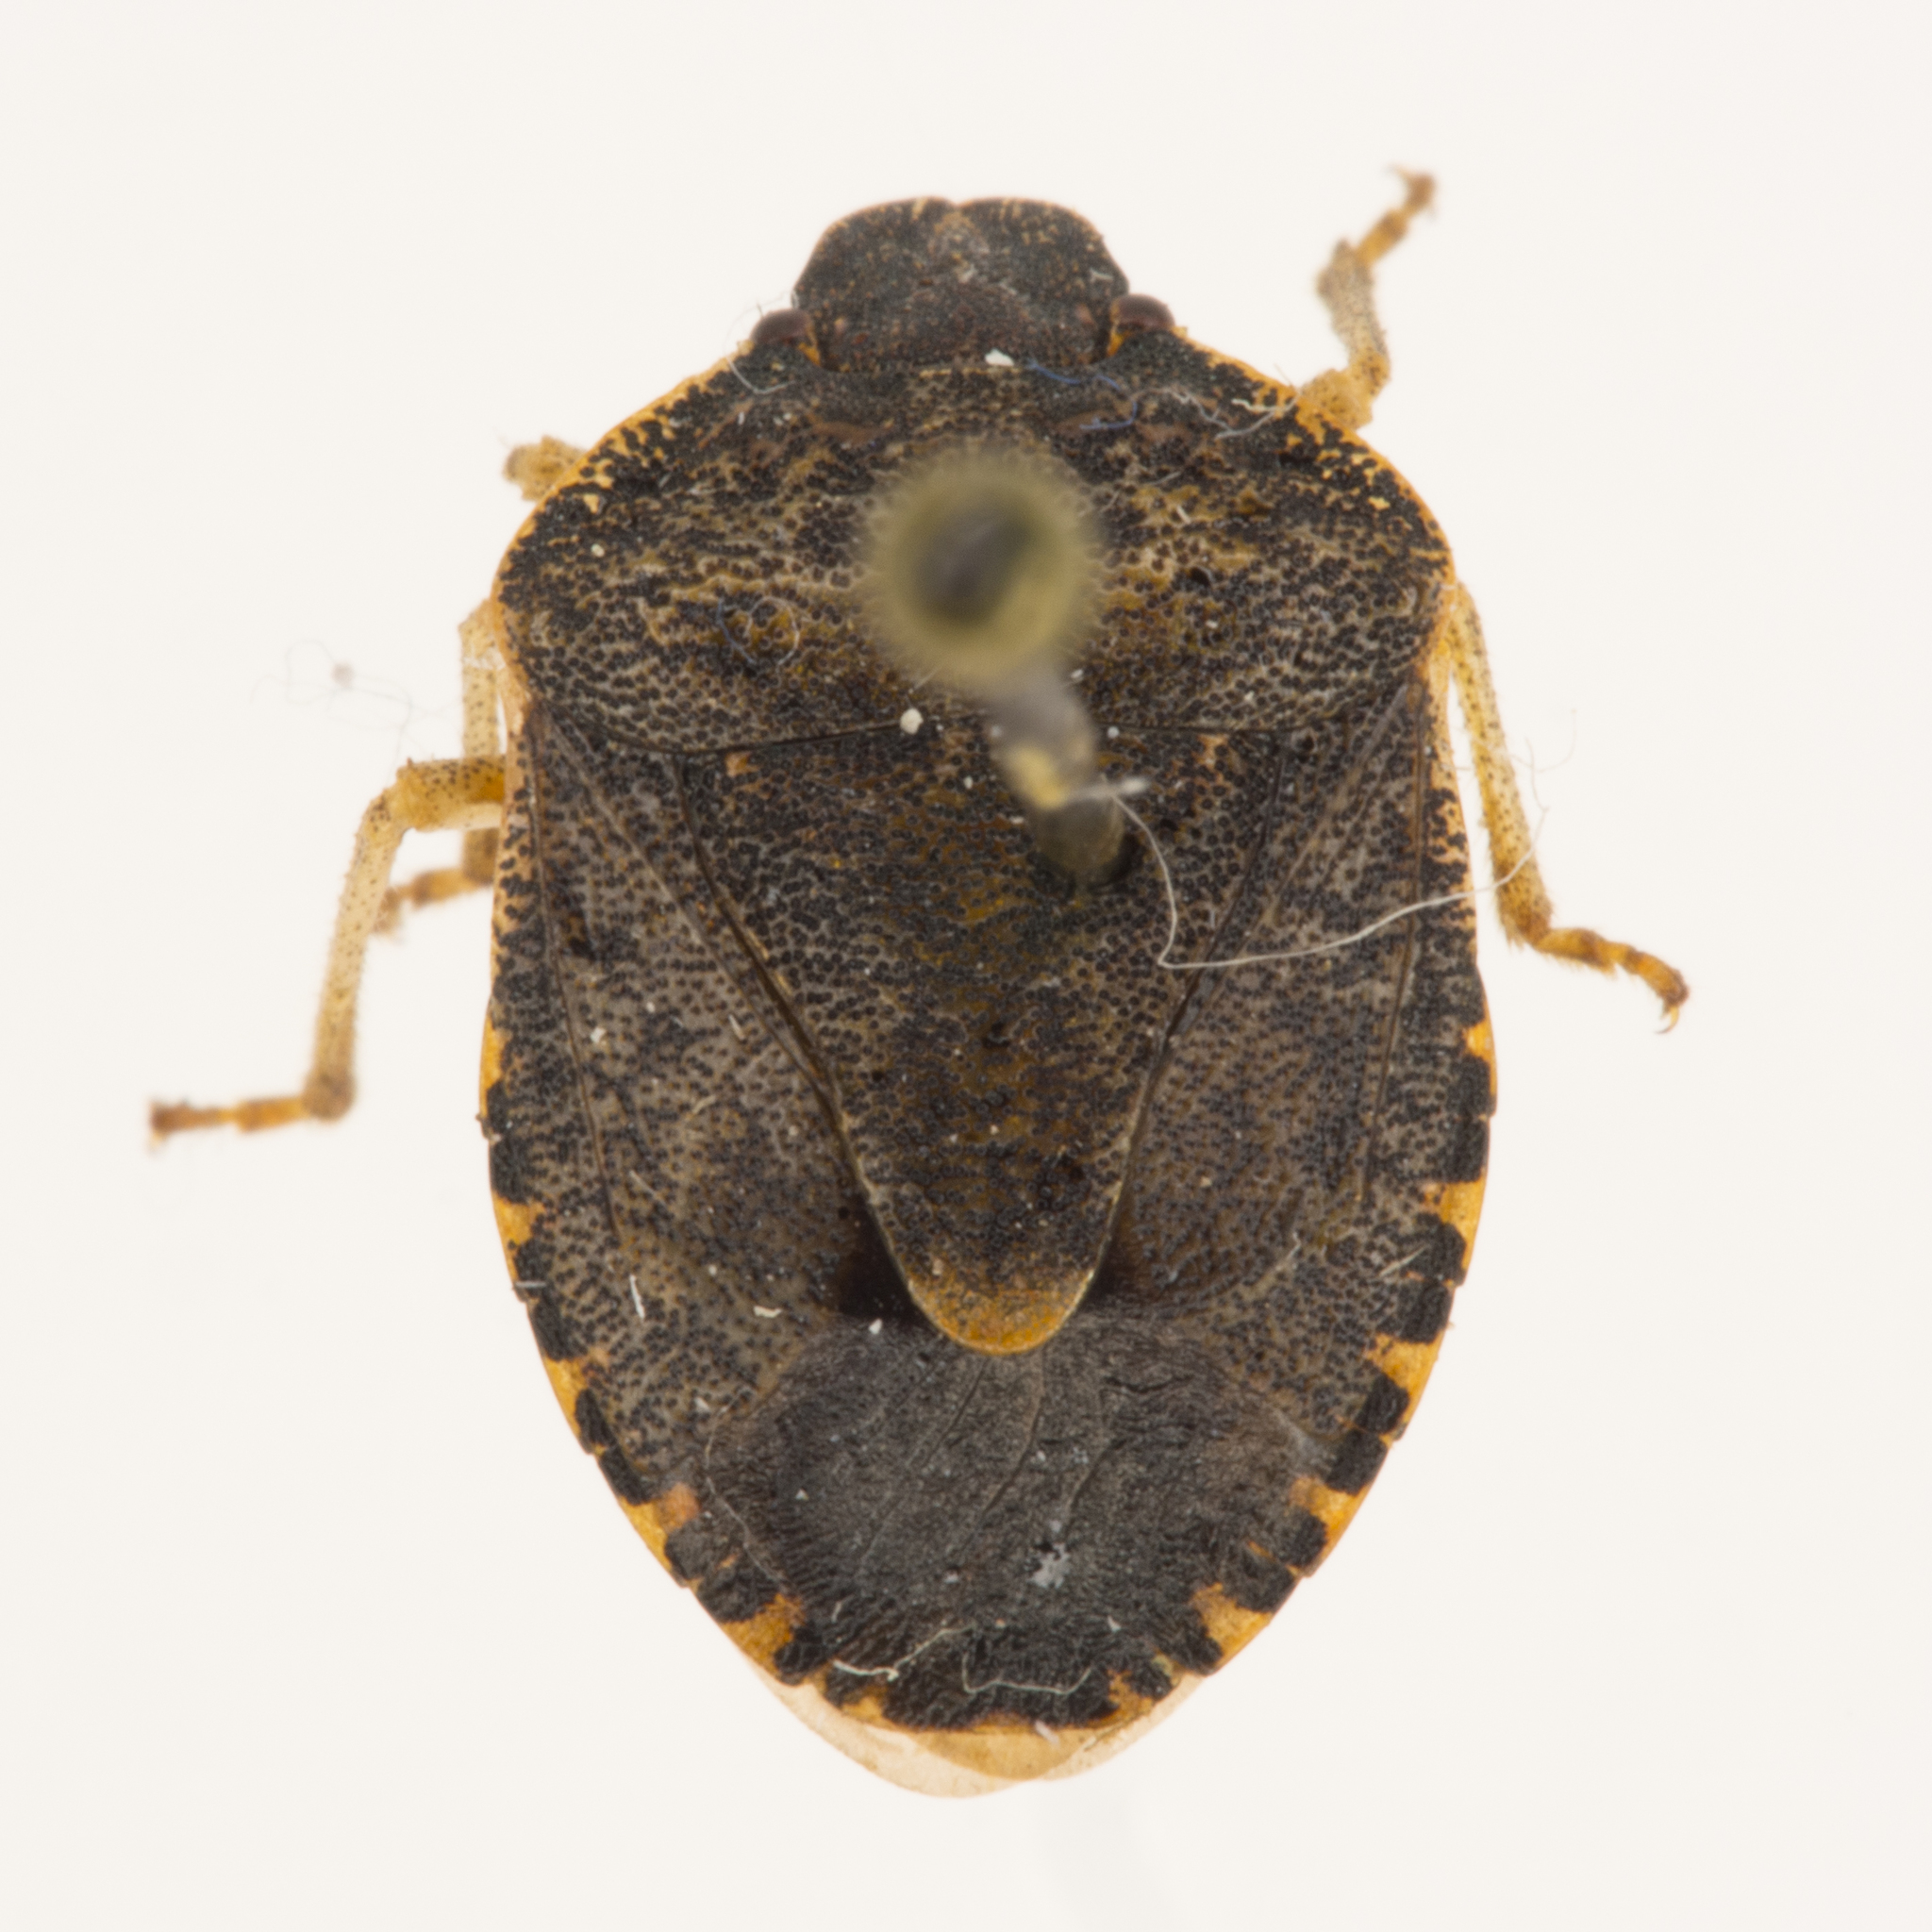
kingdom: Animalia
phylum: Arthropoda
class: Insecta
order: Hemiptera
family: Pentatomidae
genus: Holcostethus
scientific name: Holcostethus abbreviatus
